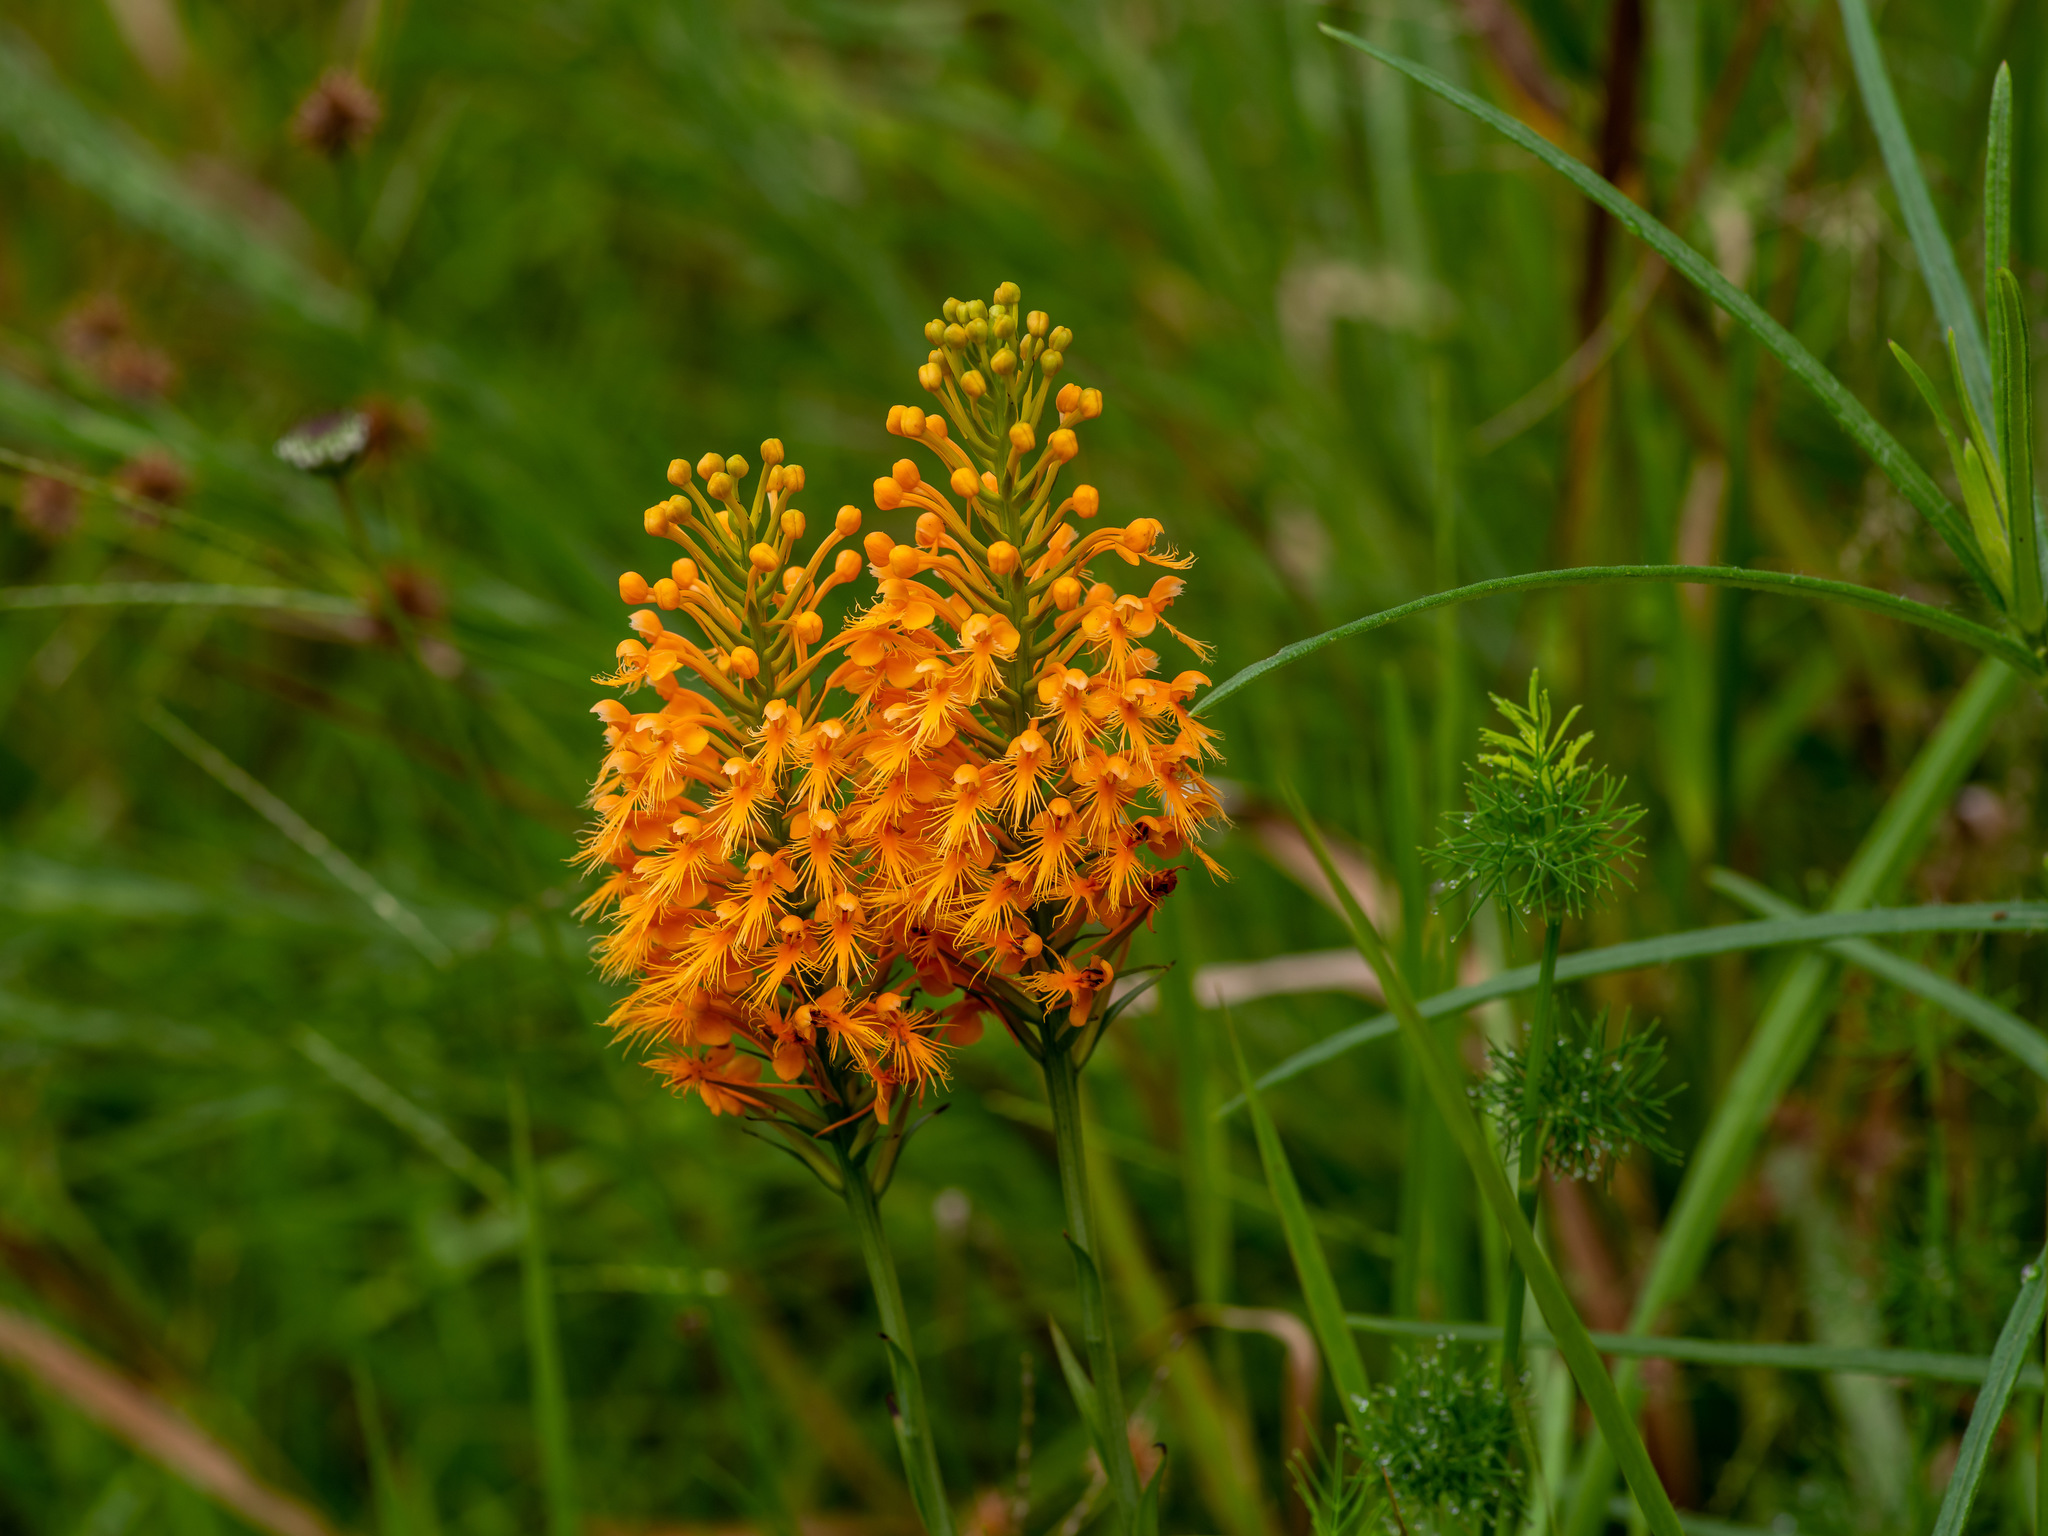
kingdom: Plantae
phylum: Tracheophyta
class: Liliopsida
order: Asparagales
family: Orchidaceae
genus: Platanthera
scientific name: Platanthera chapmanii
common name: Chapman’s fringed orchid
